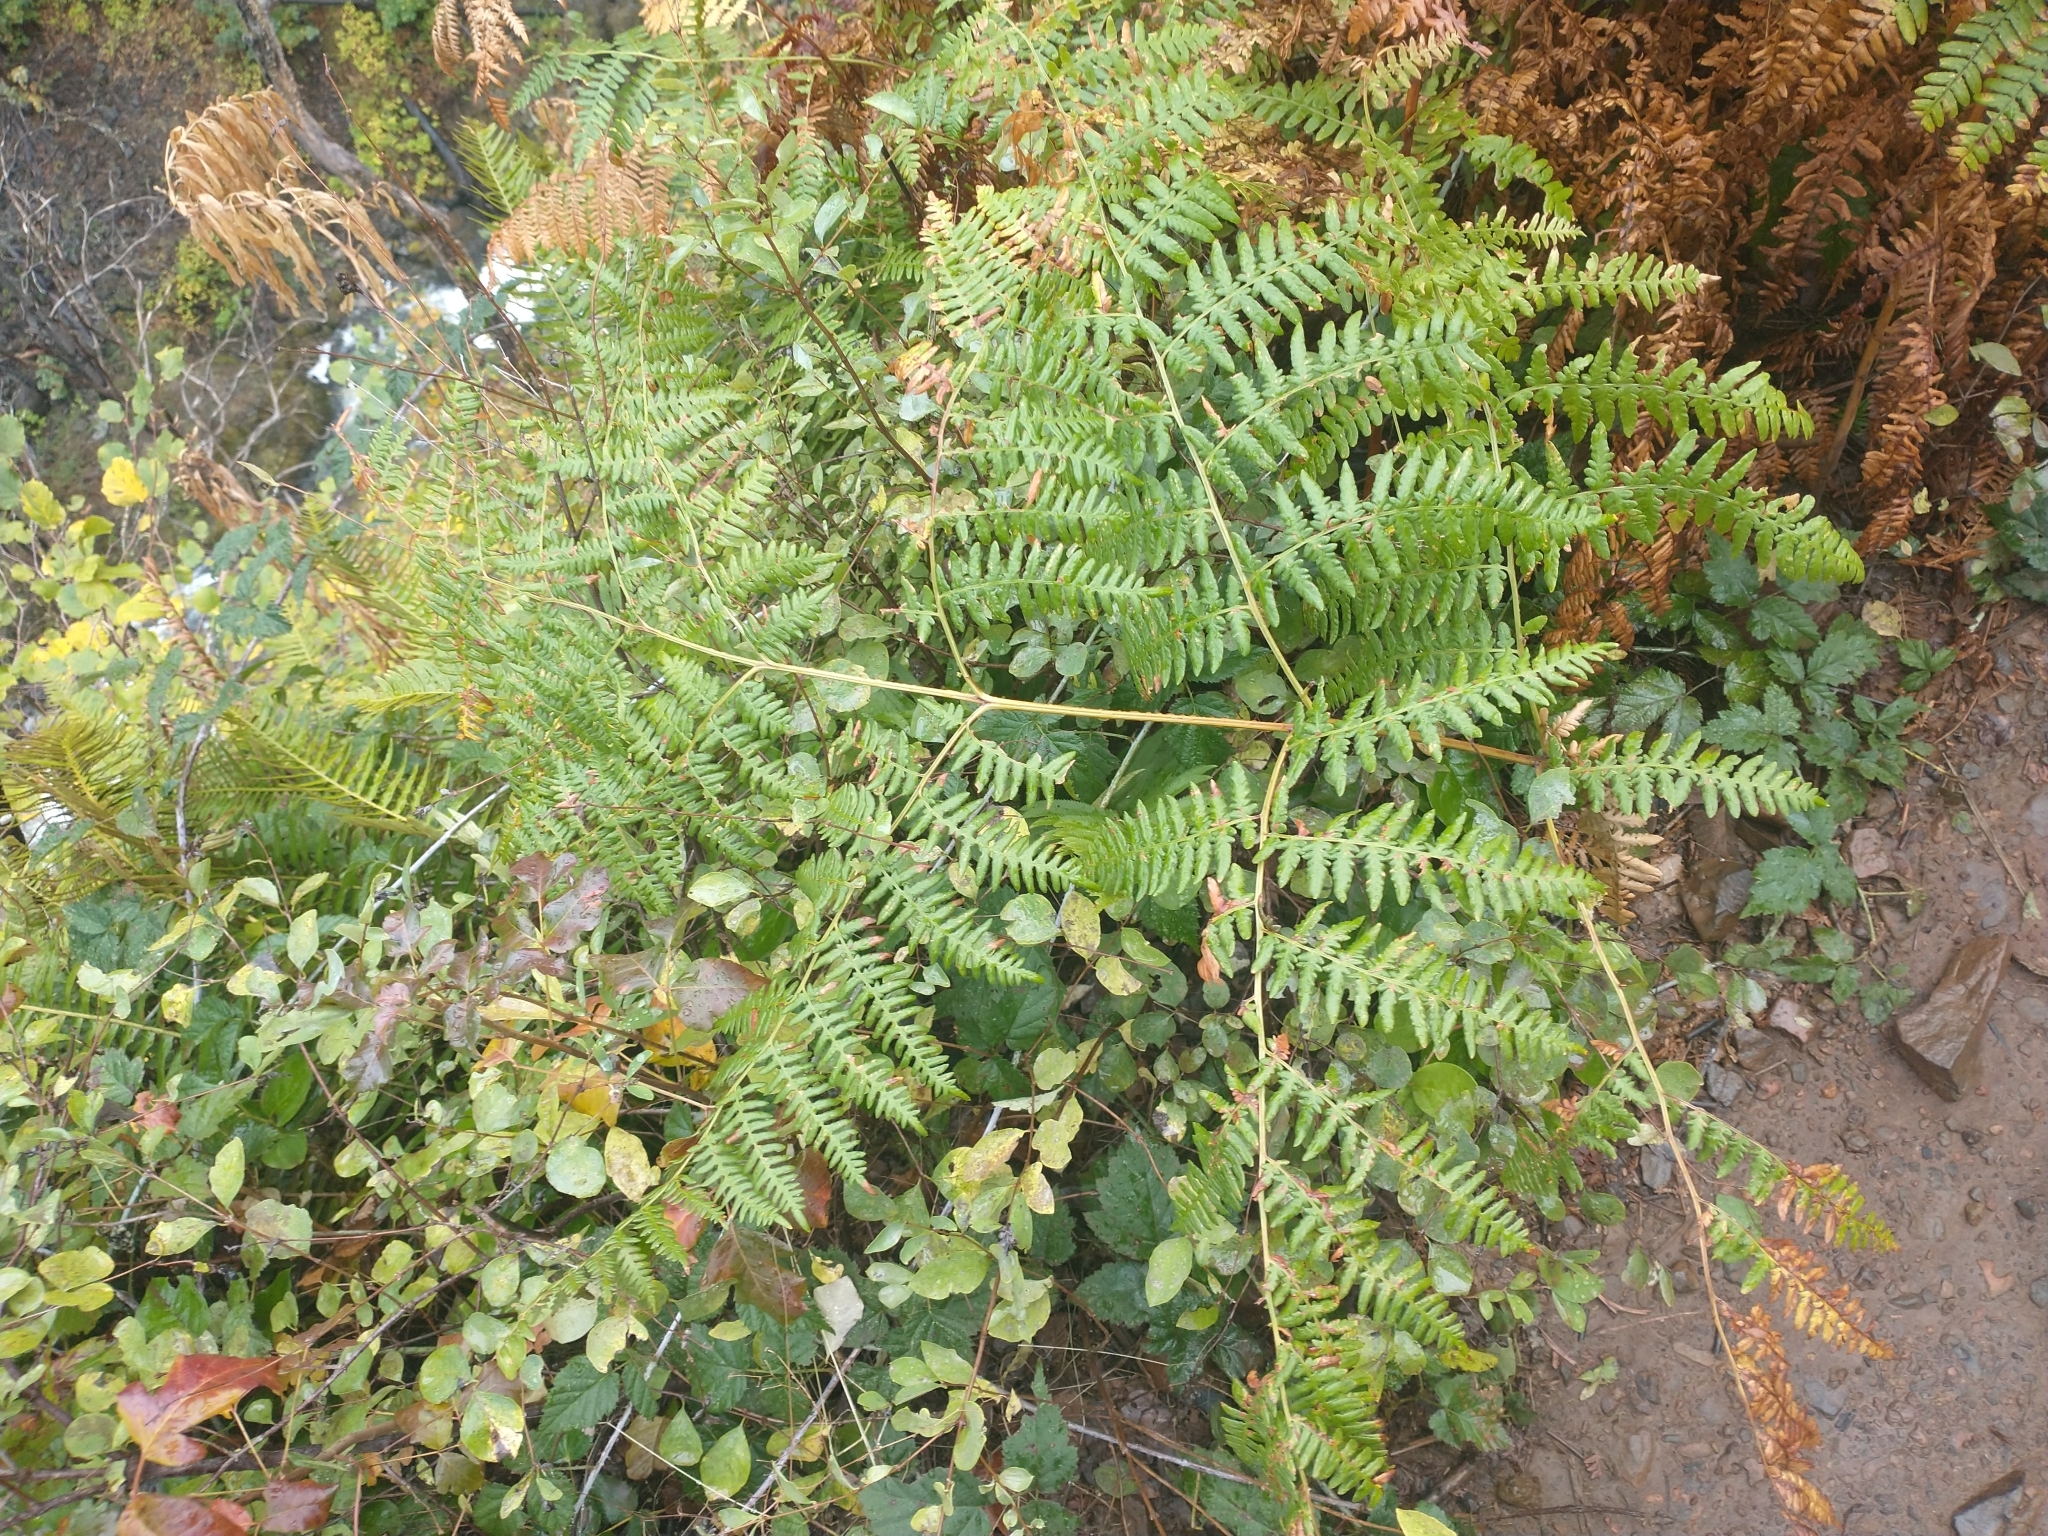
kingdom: Plantae
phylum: Tracheophyta
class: Polypodiopsida
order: Polypodiales
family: Dennstaedtiaceae
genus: Pteridium
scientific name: Pteridium aquilinum
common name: Bracken
